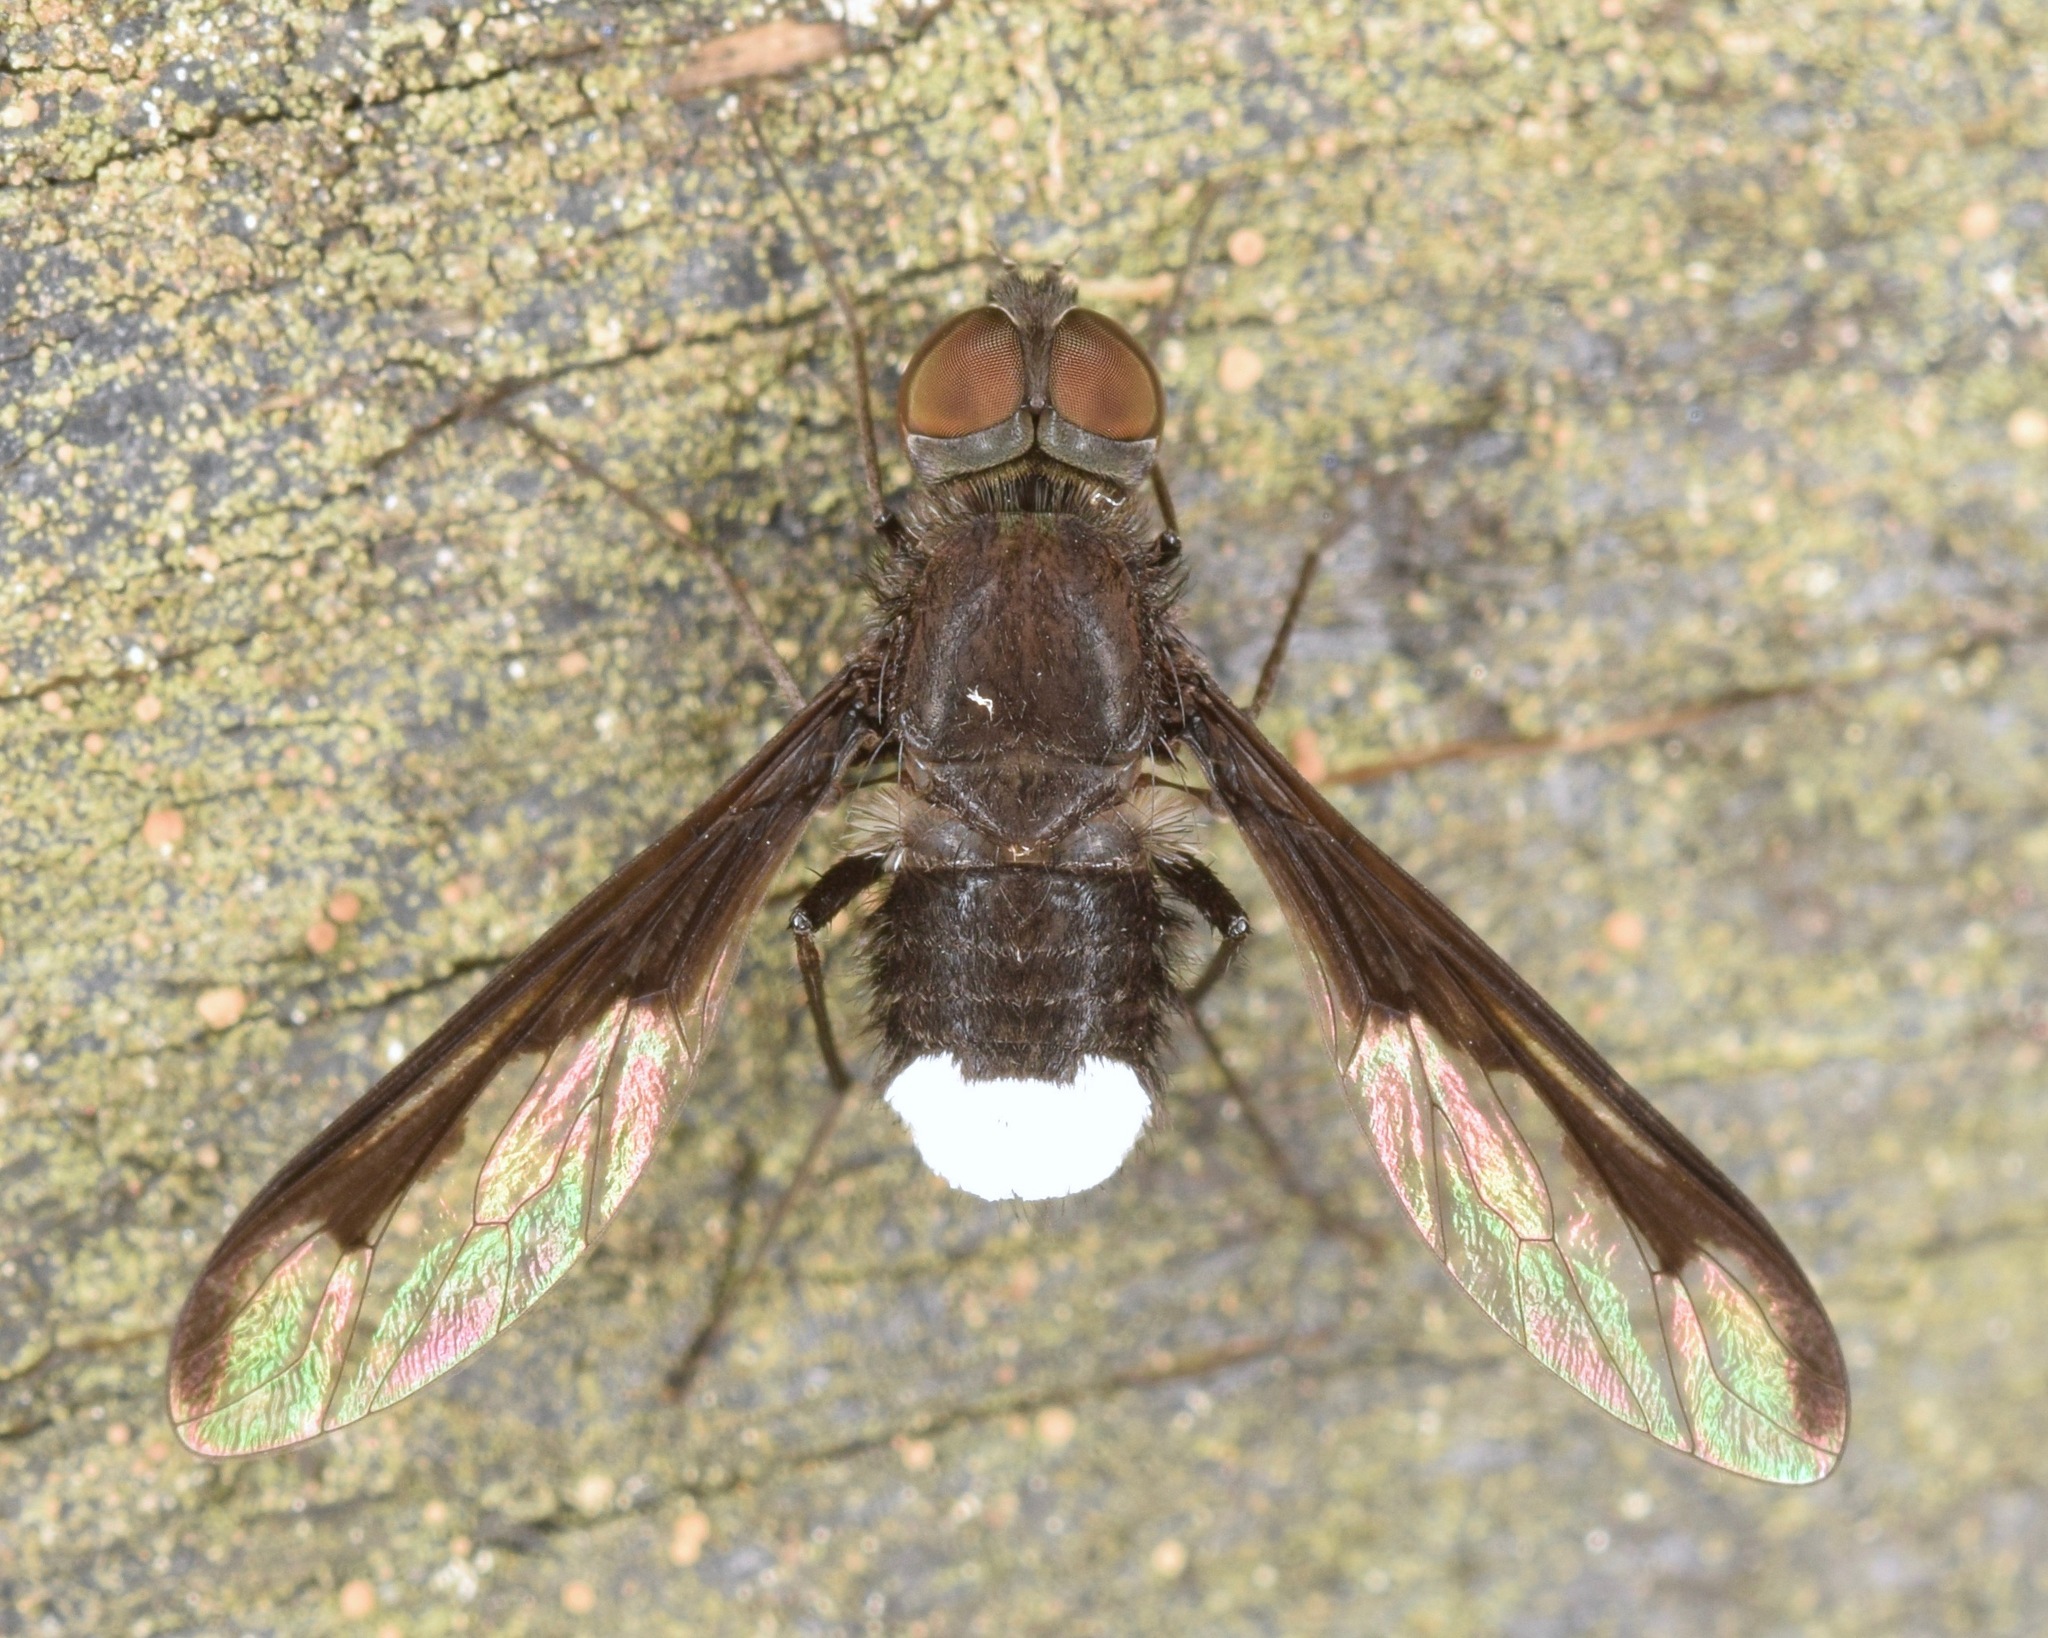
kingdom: Animalia
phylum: Arthropoda
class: Insecta
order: Diptera
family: Bombyliidae
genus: Anthrax
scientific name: Anthrax argyropygus
